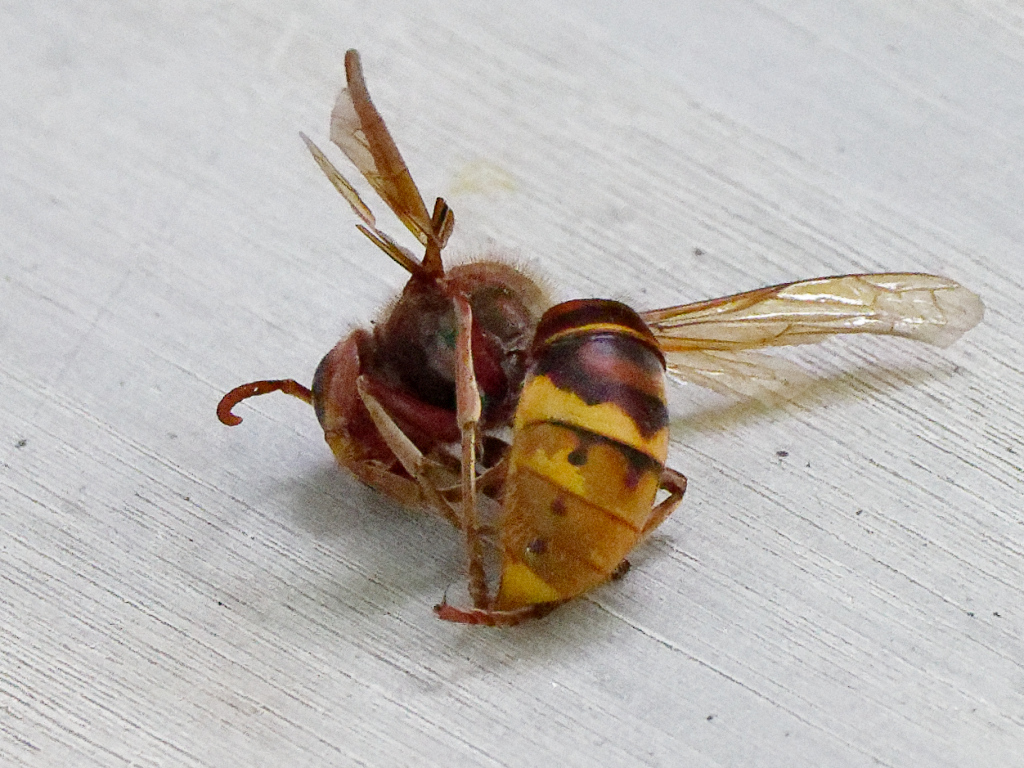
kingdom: Animalia
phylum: Arthropoda
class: Insecta
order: Hymenoptera
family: Vespidae
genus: Vespa
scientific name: Vespa crabro
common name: Hornet
